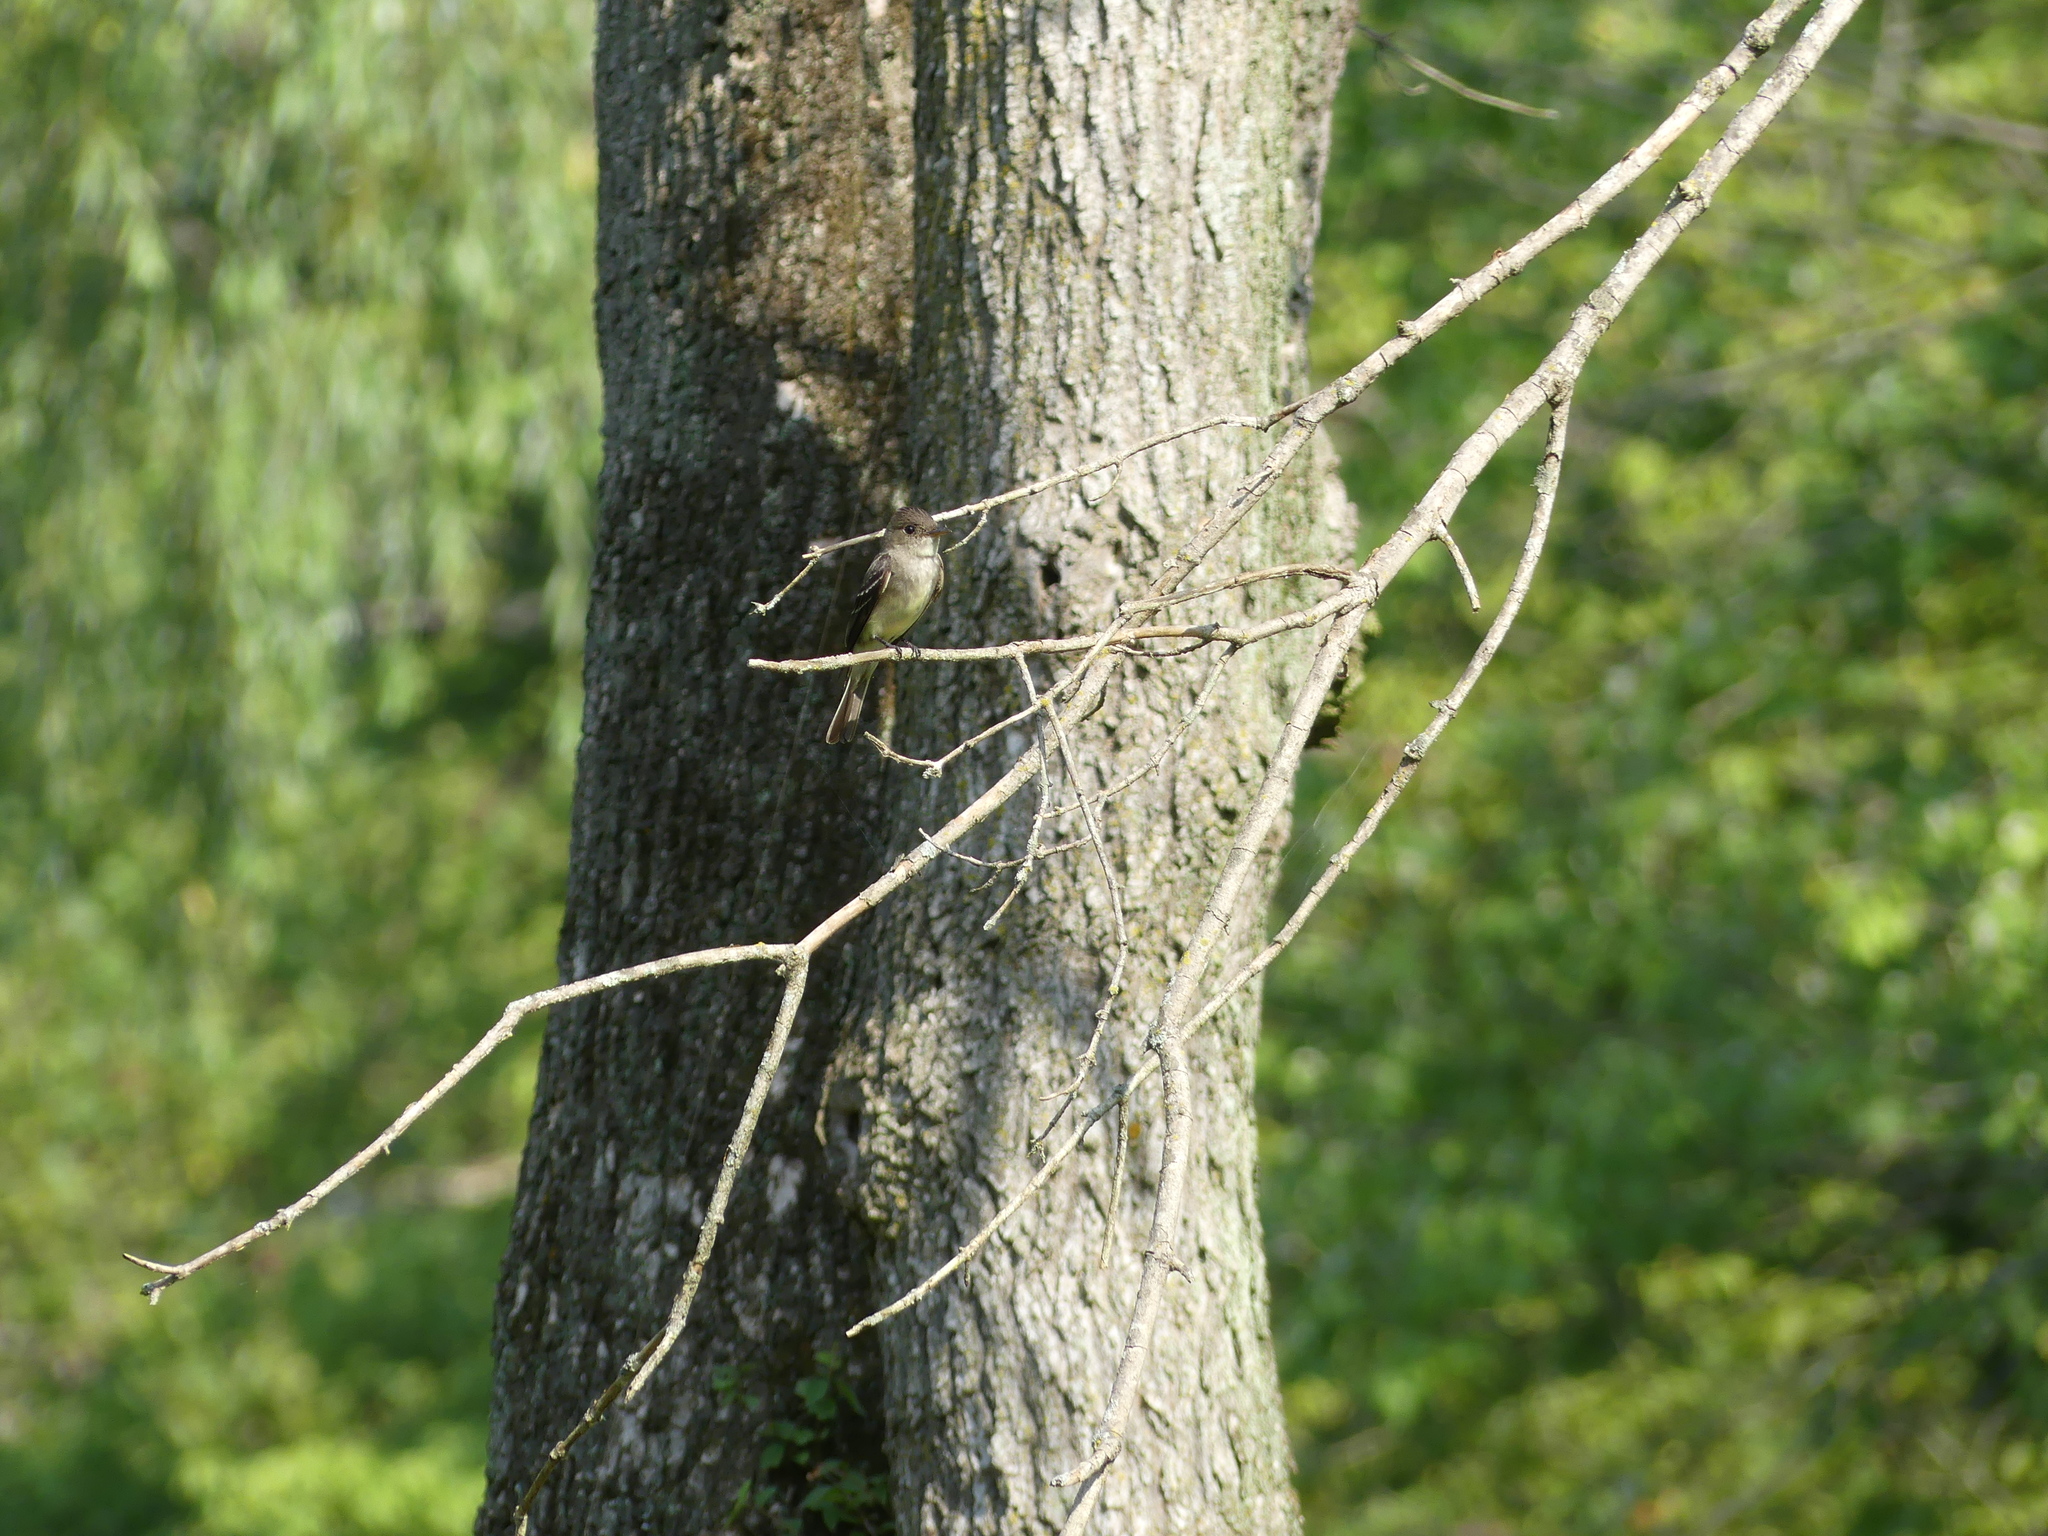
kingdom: Animalia
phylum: Chordata
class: Aves
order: Passeriformes
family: Tyrannidae
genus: Contopus
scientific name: Contopus virens
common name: Eastern wood-pewee
